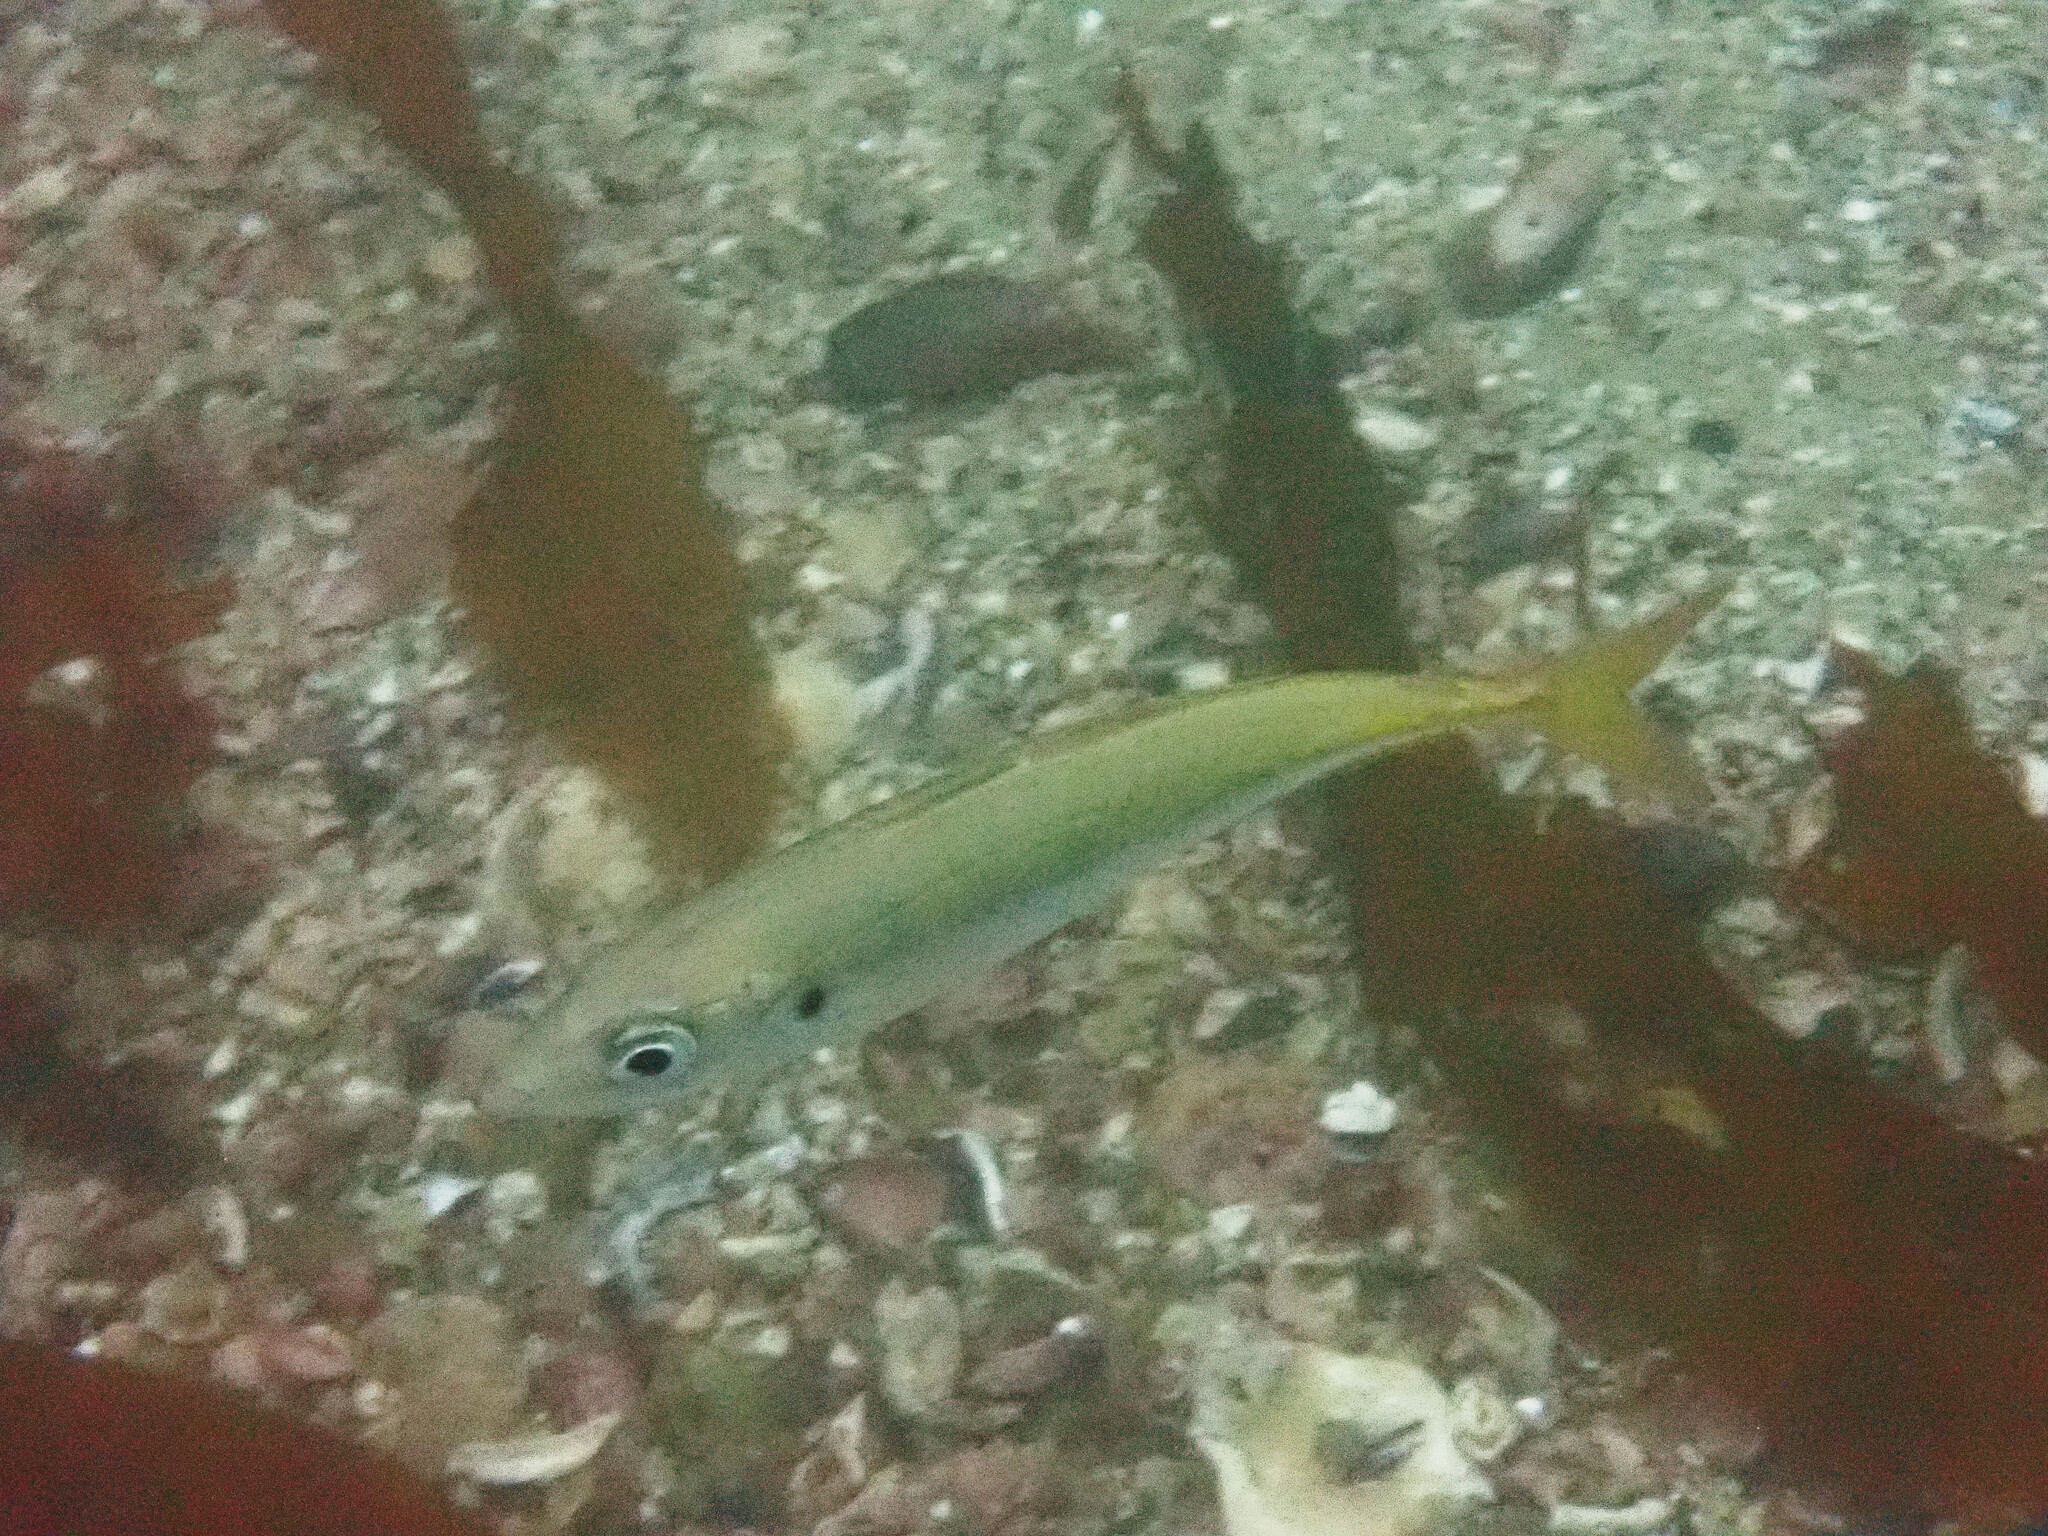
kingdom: Animalia
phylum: Chordata
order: Perciformes
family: Carangidae
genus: Trachurus
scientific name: Trachurus symmetricus
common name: Jack mackerel
